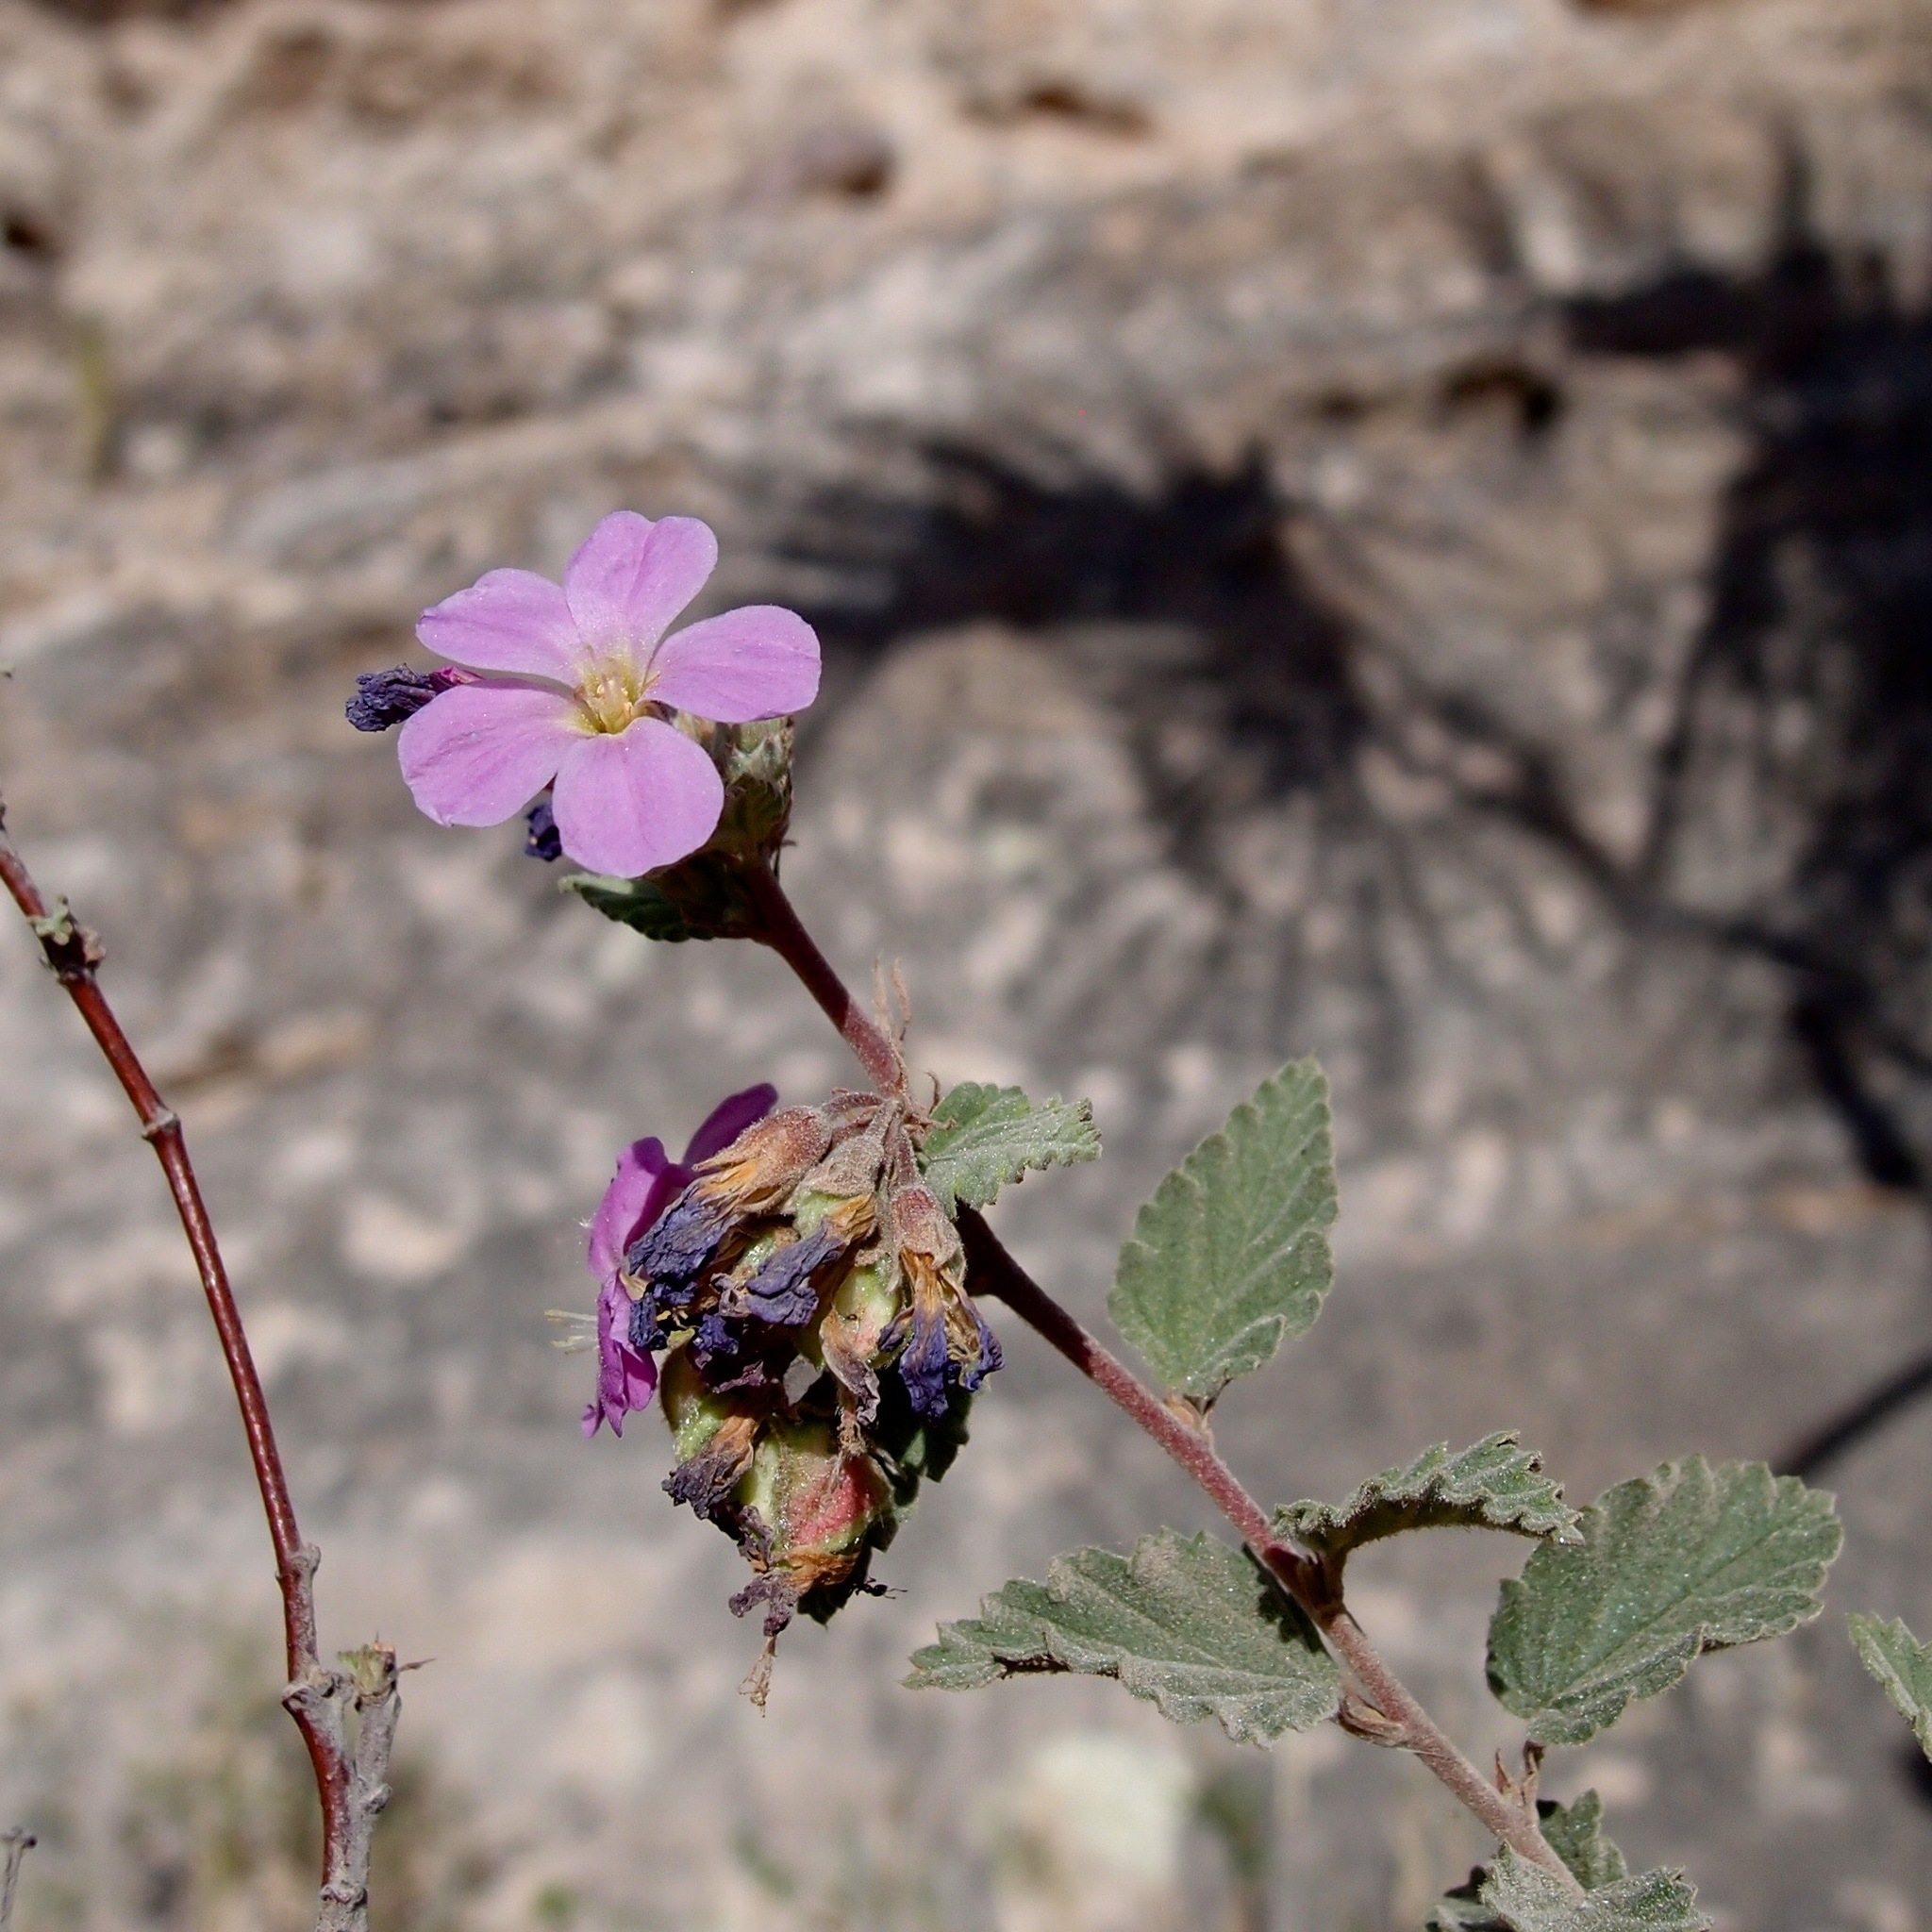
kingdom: Plantae
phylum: Tracheophyta
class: Magnoliopsida
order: Malvales
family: Malvaceae
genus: Melochia
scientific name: Melochia tomentosa
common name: Black torch
